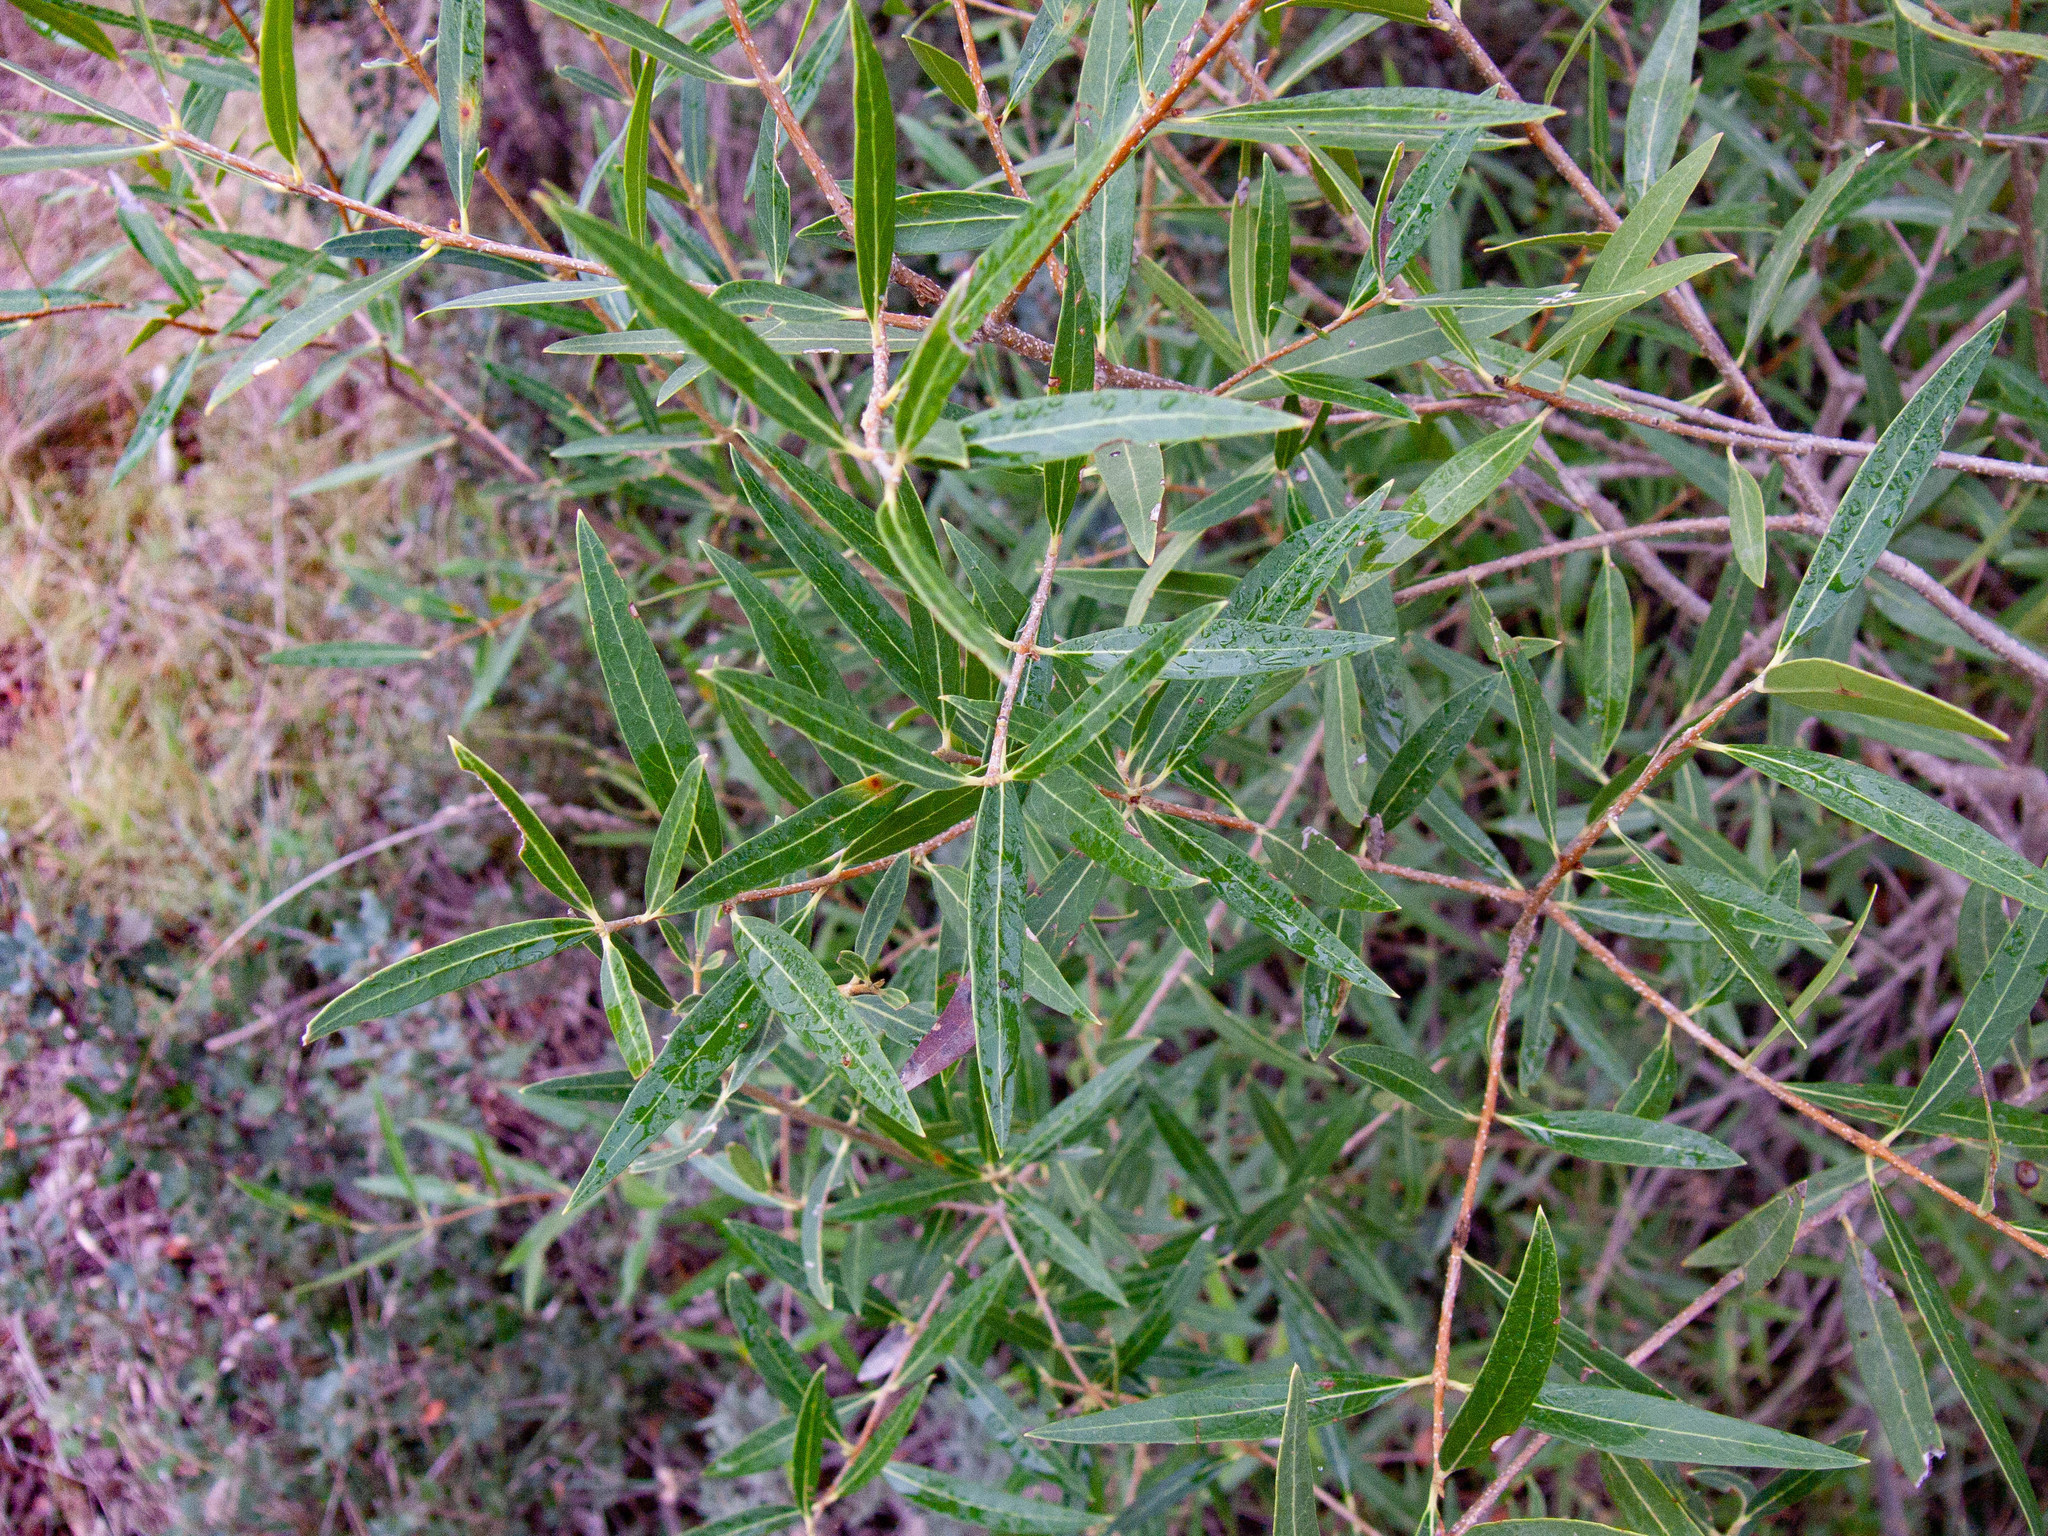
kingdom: Plantae
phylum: Tracheophyta
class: Magnoliopsida
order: Lamiales
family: Oleaceae
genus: Phillyrea
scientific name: Phillyrea angustifolia
